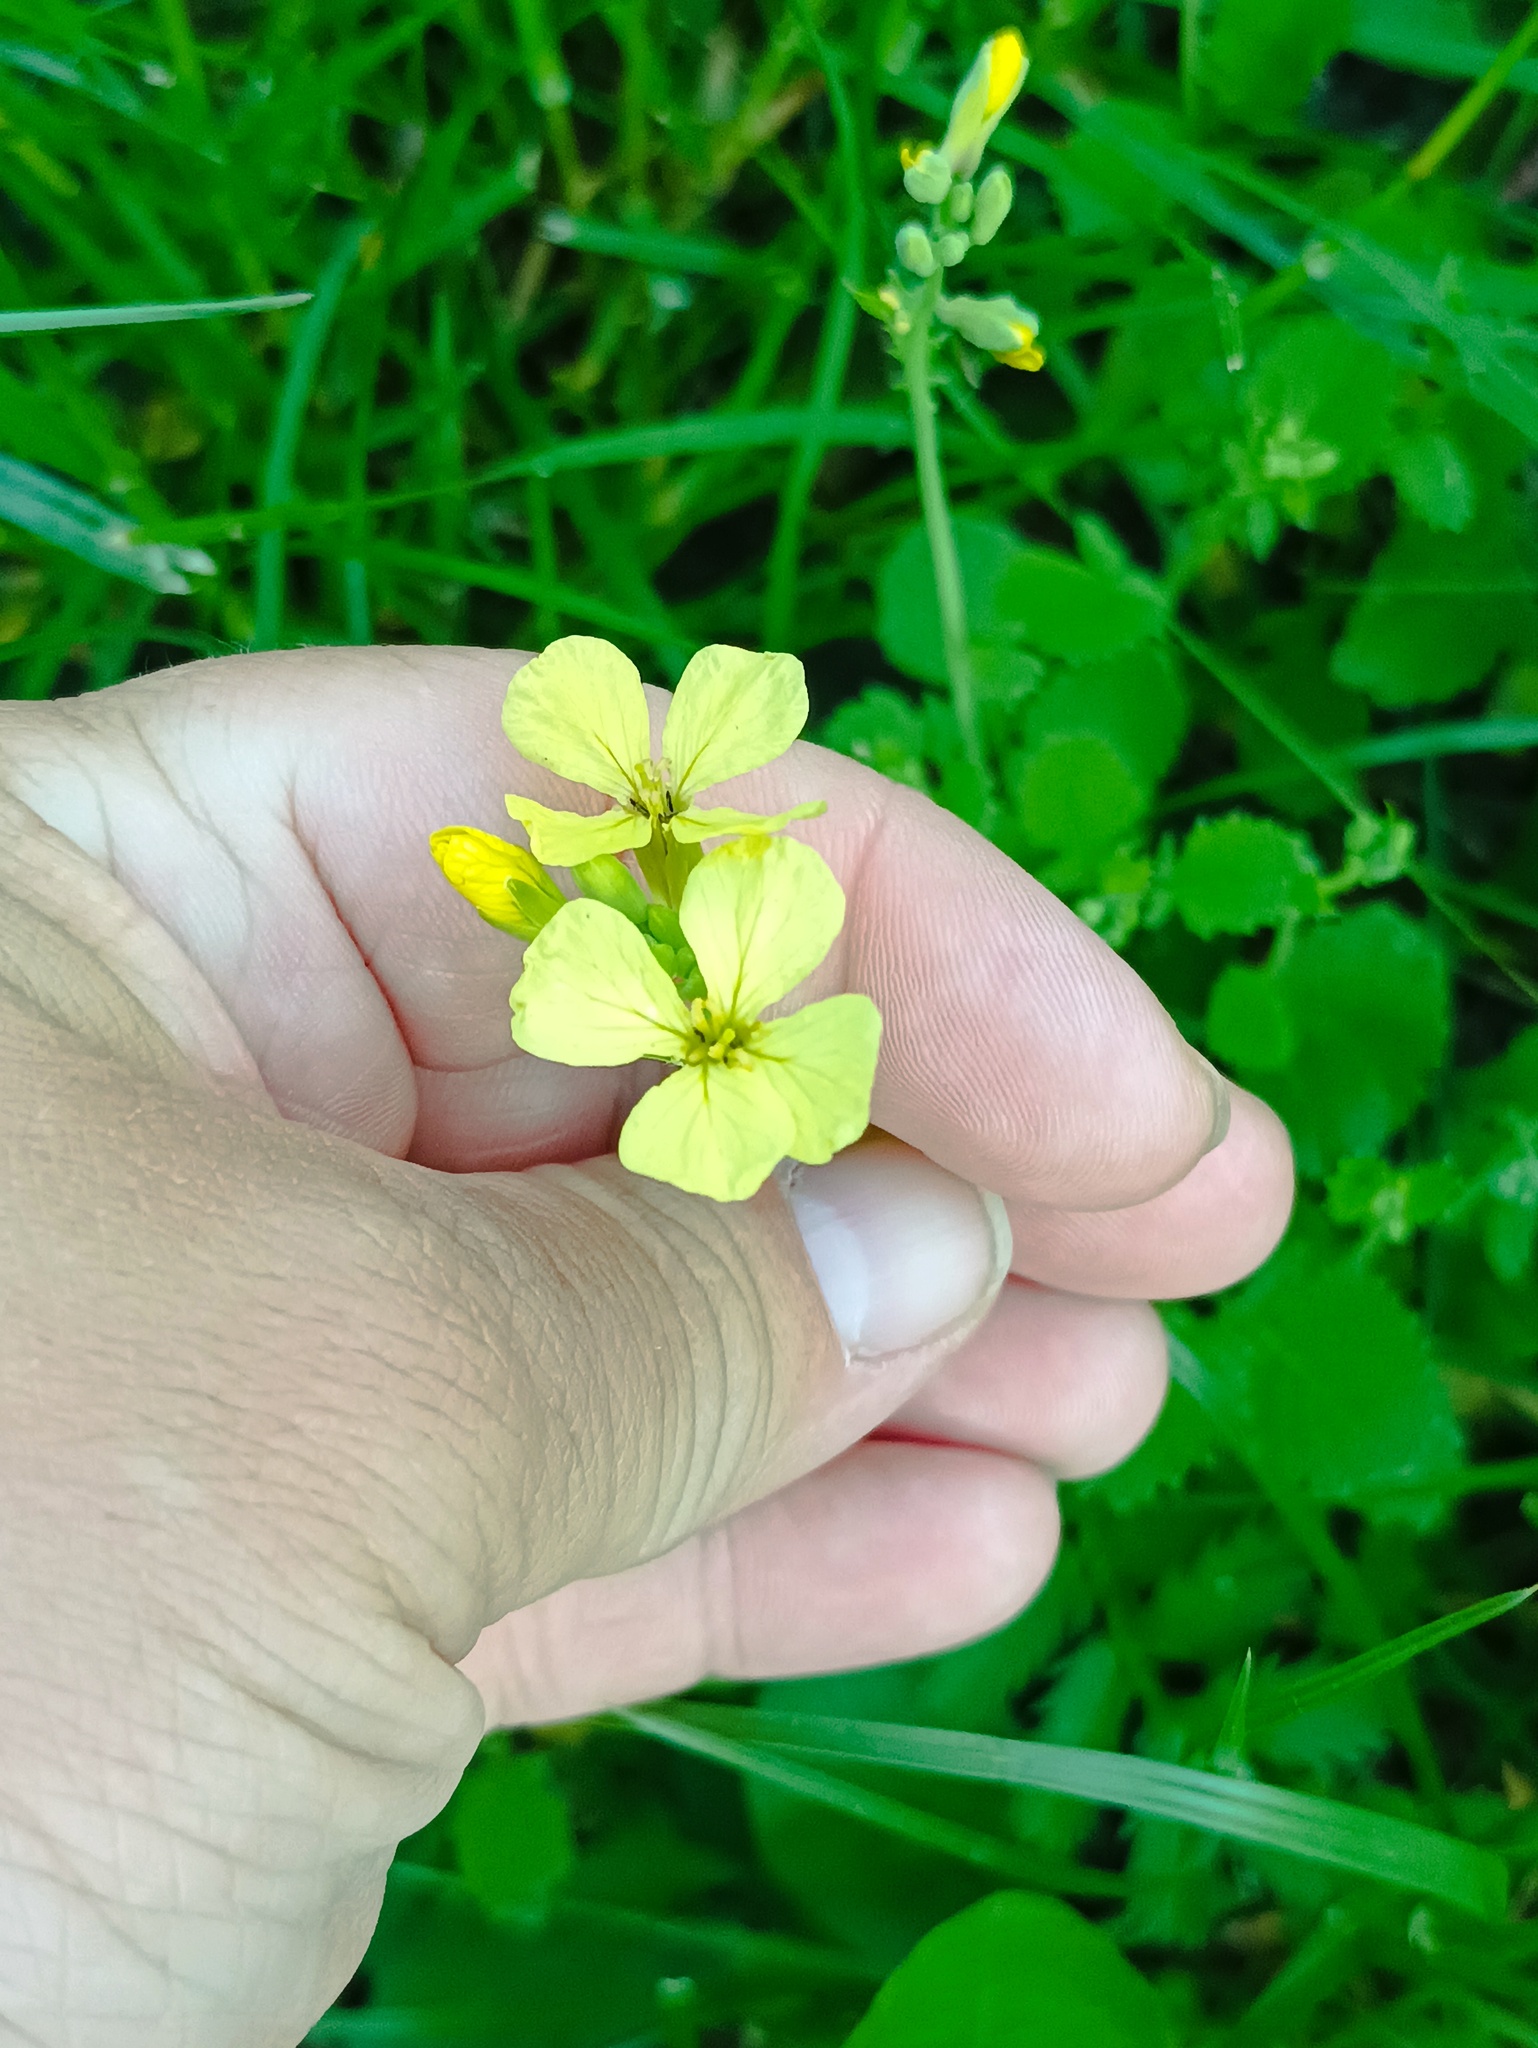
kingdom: Plantae
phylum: Tracheophyta
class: Magnoliopsida
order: Brassicales
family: Brassicaceae
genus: Raphanus
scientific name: Raphanus raphanistrum
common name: Wild radish
